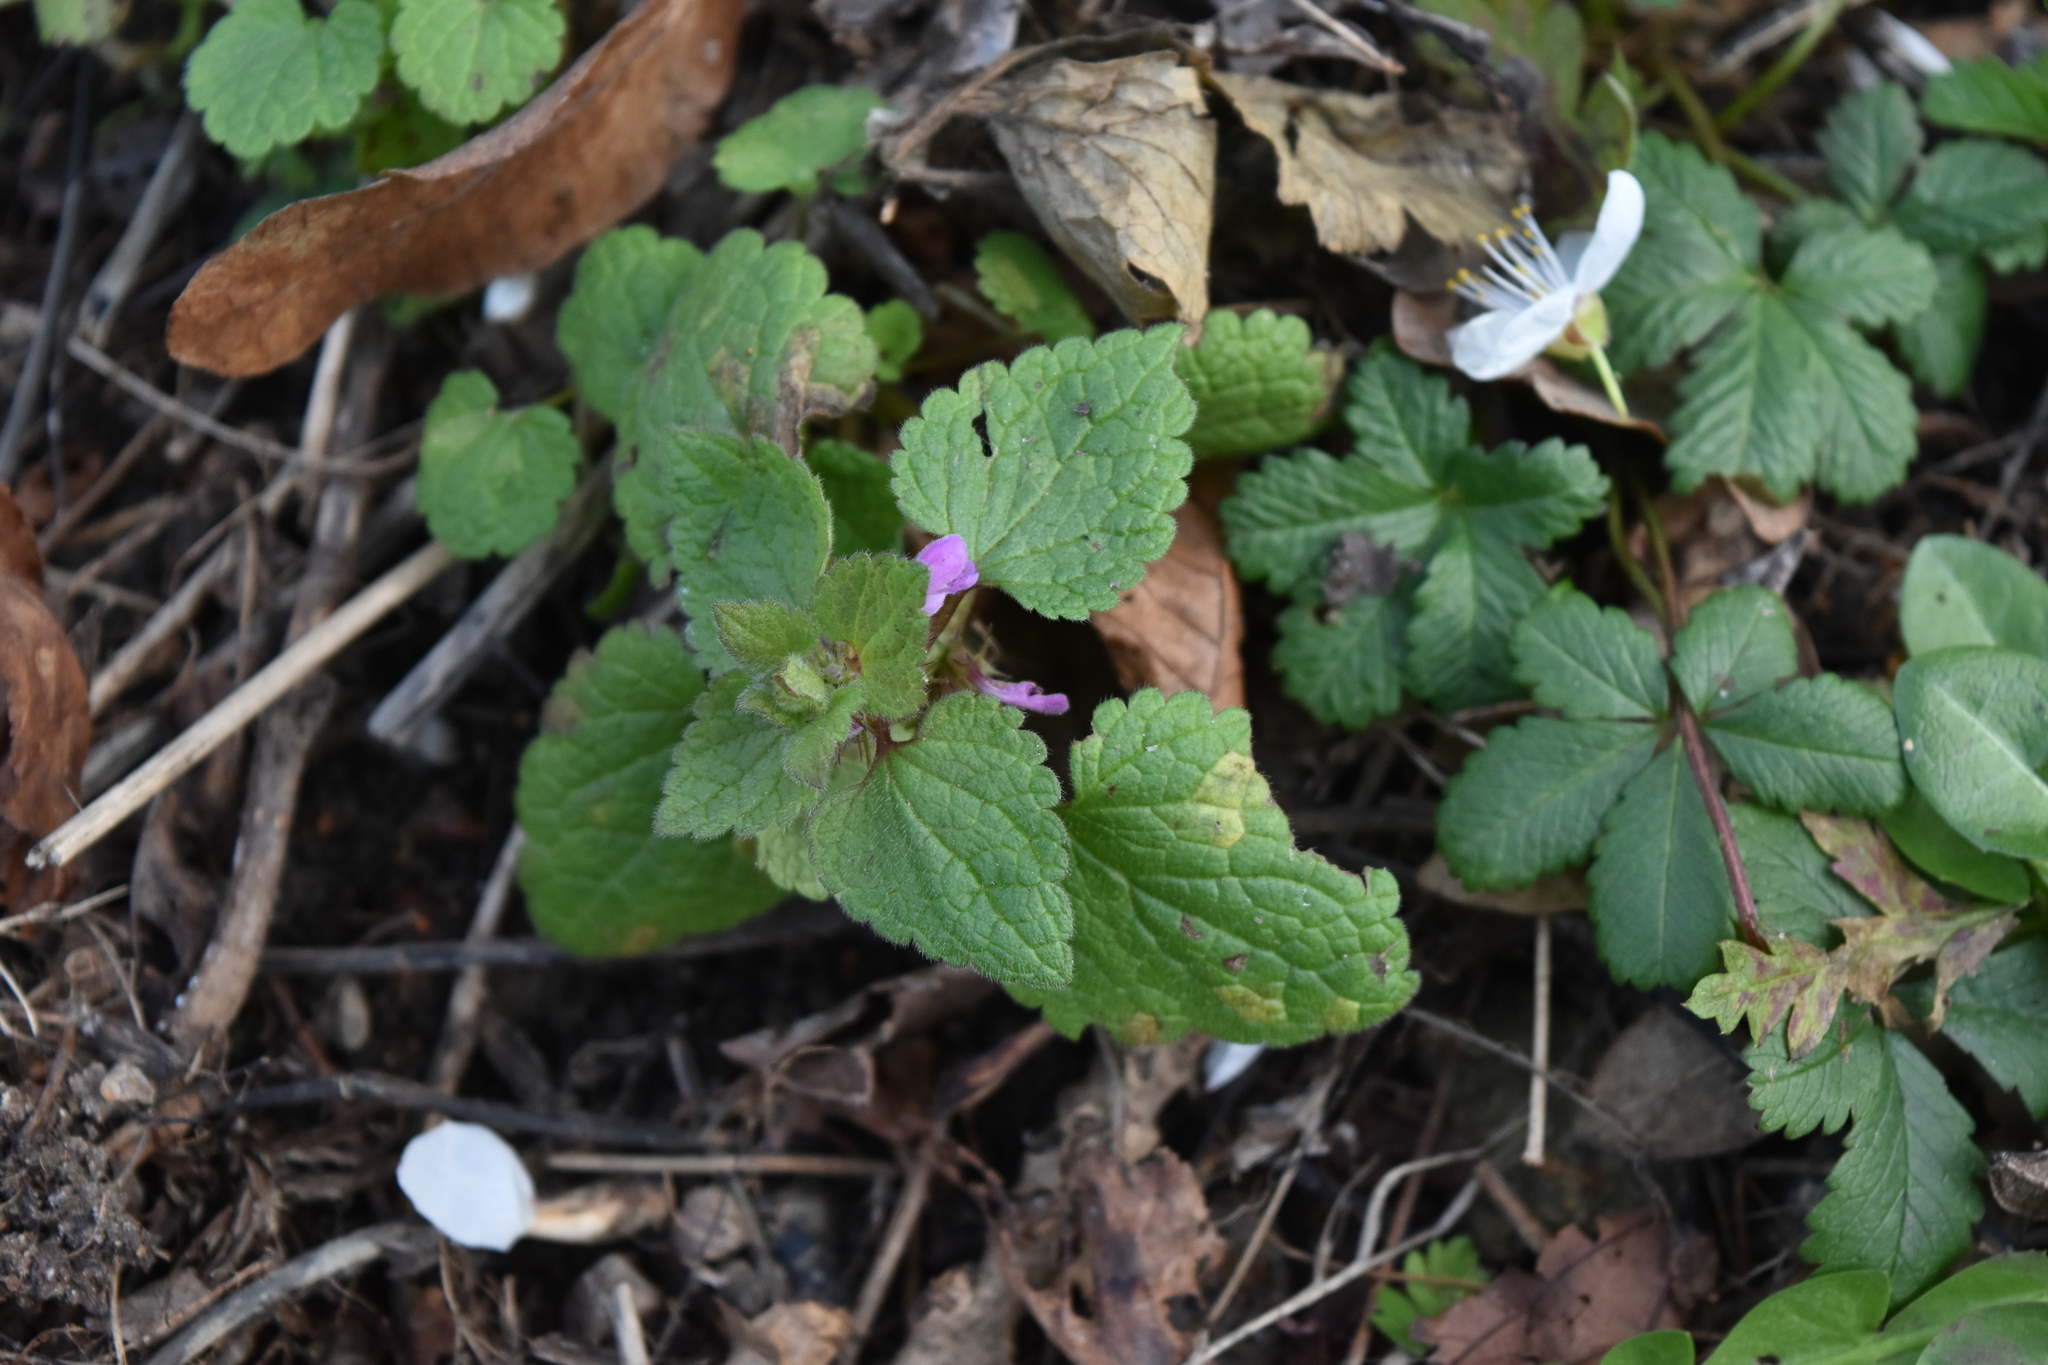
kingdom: Plantae
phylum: Tracheophyta
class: Magnoliopsida
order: Lamiales
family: Lamiaceae
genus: Lamium
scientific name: Lamium purpureum
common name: Red dead-nettle
